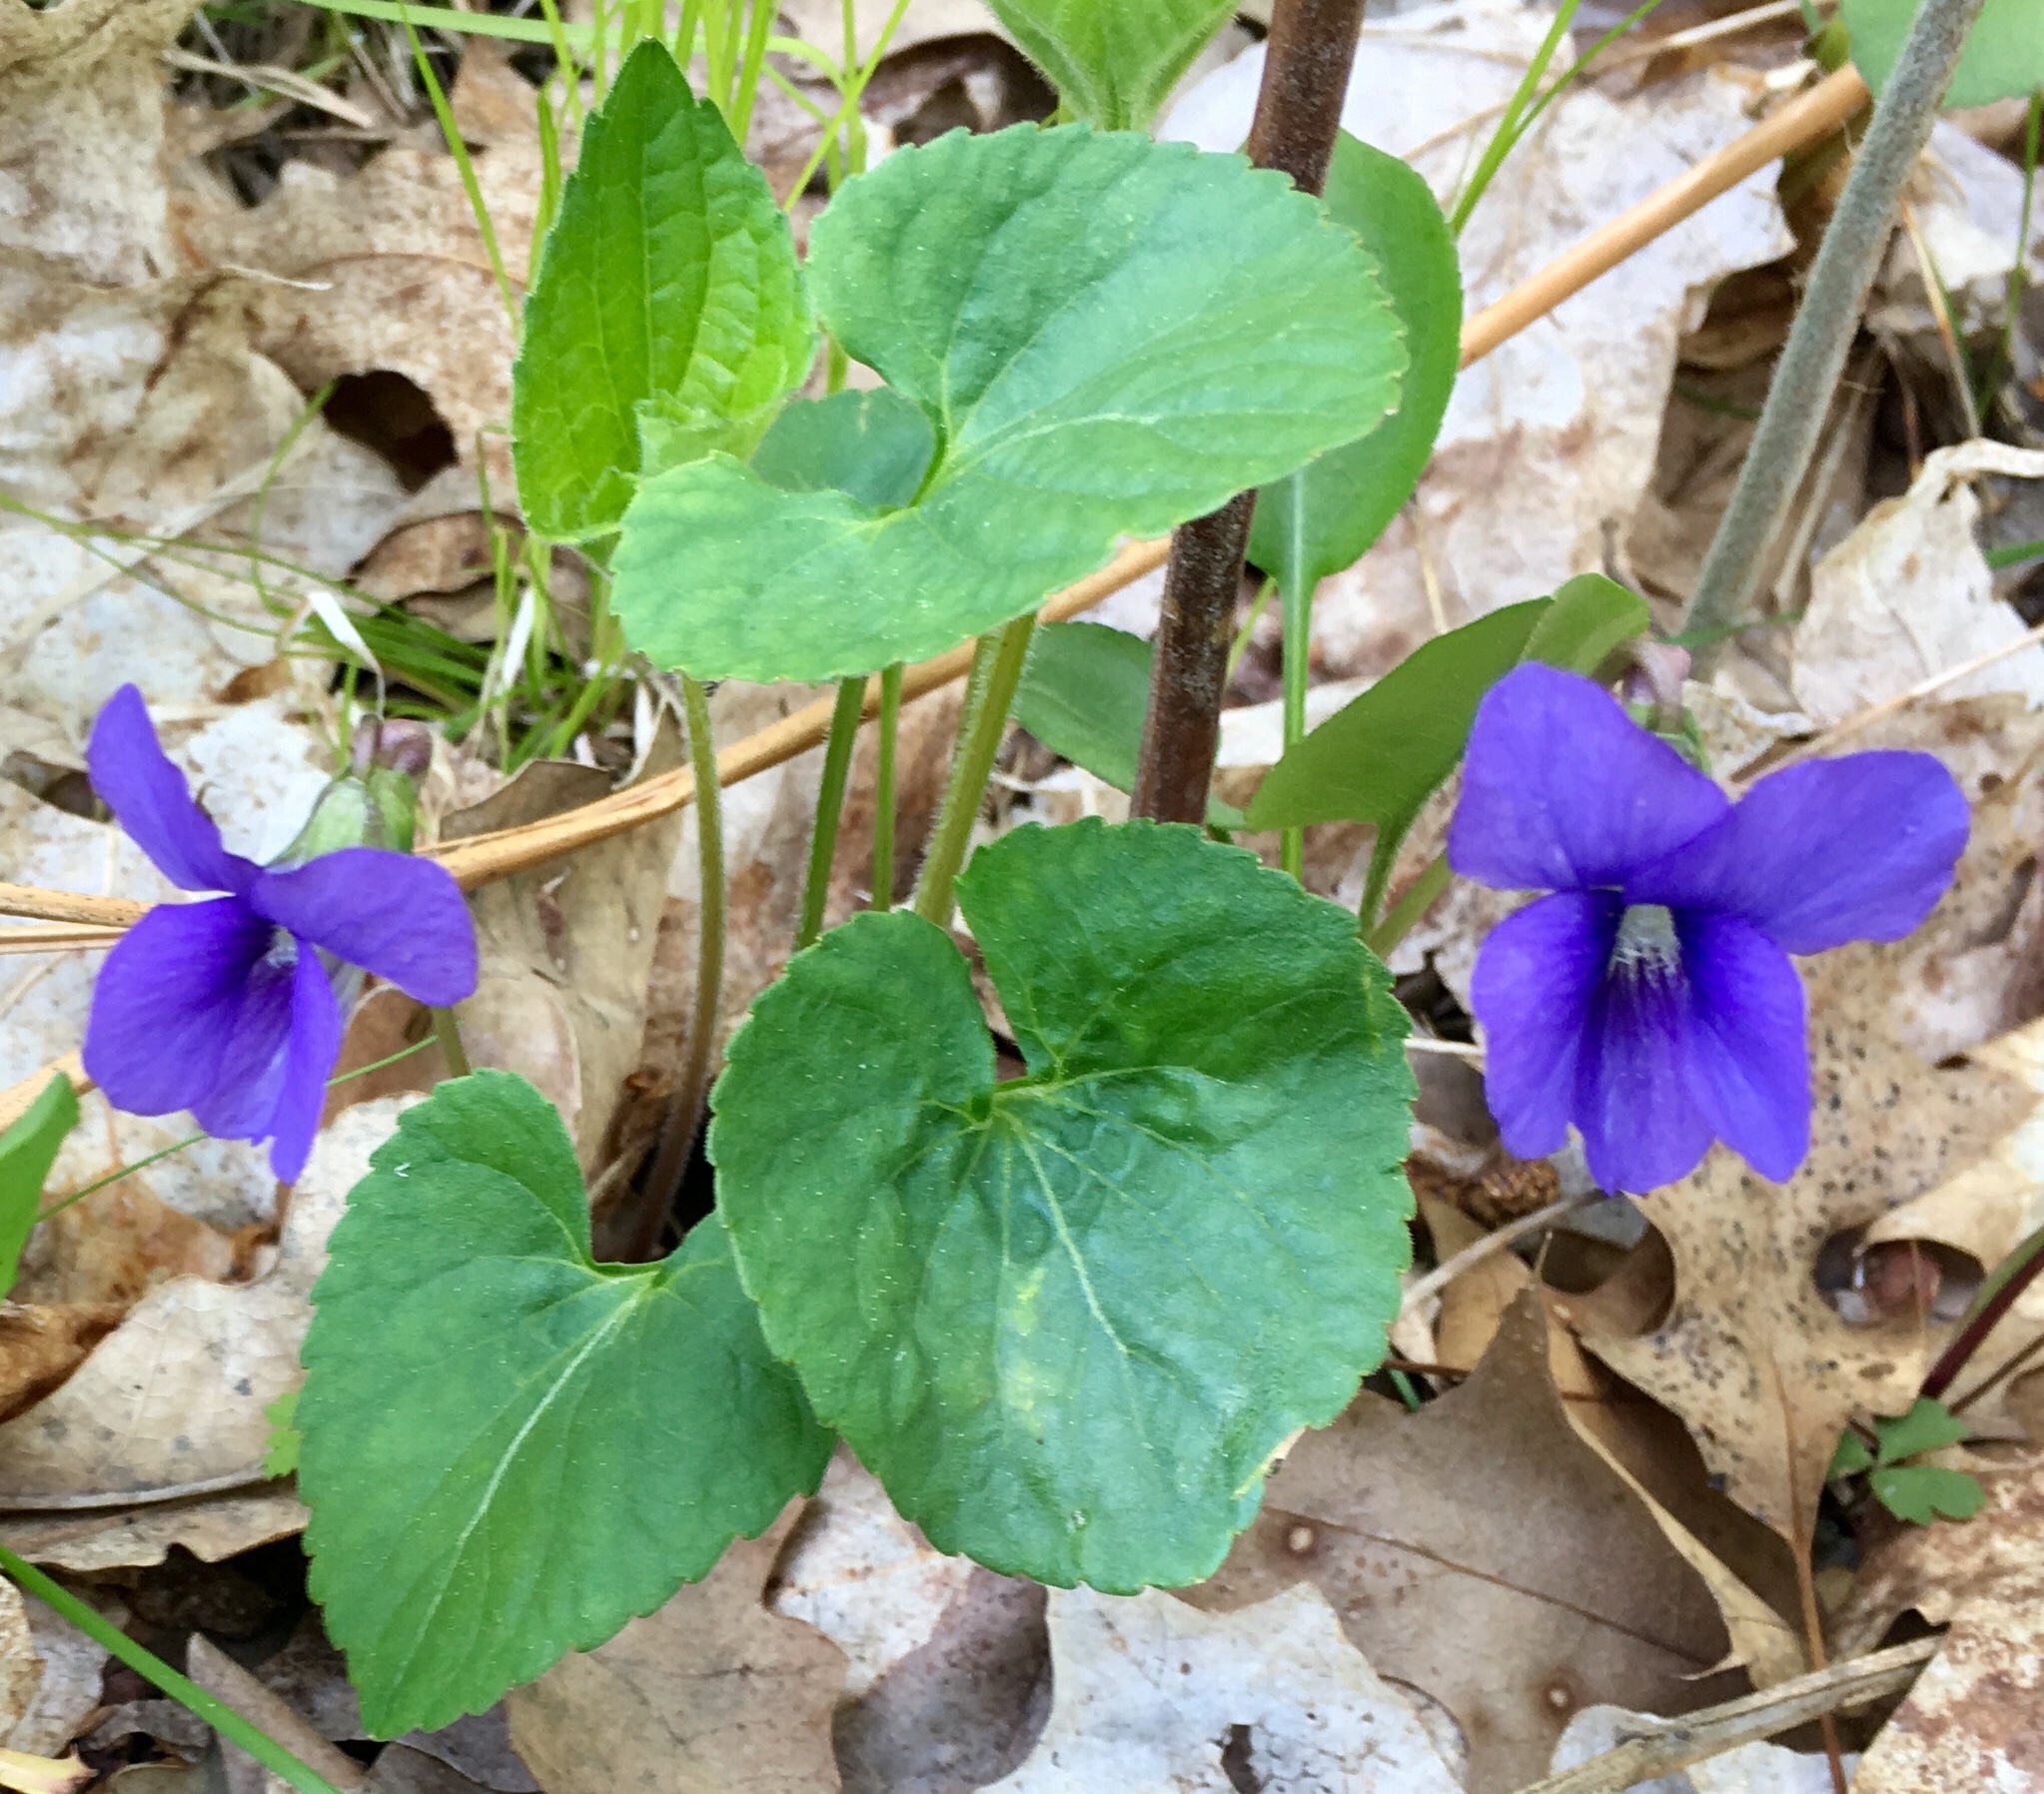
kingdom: Plantae
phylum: Tracheophyta
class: Magnoliopsida
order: Malpighiales
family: Violaceae
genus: Viola
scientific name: Viola sororia
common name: Dooryard violet
